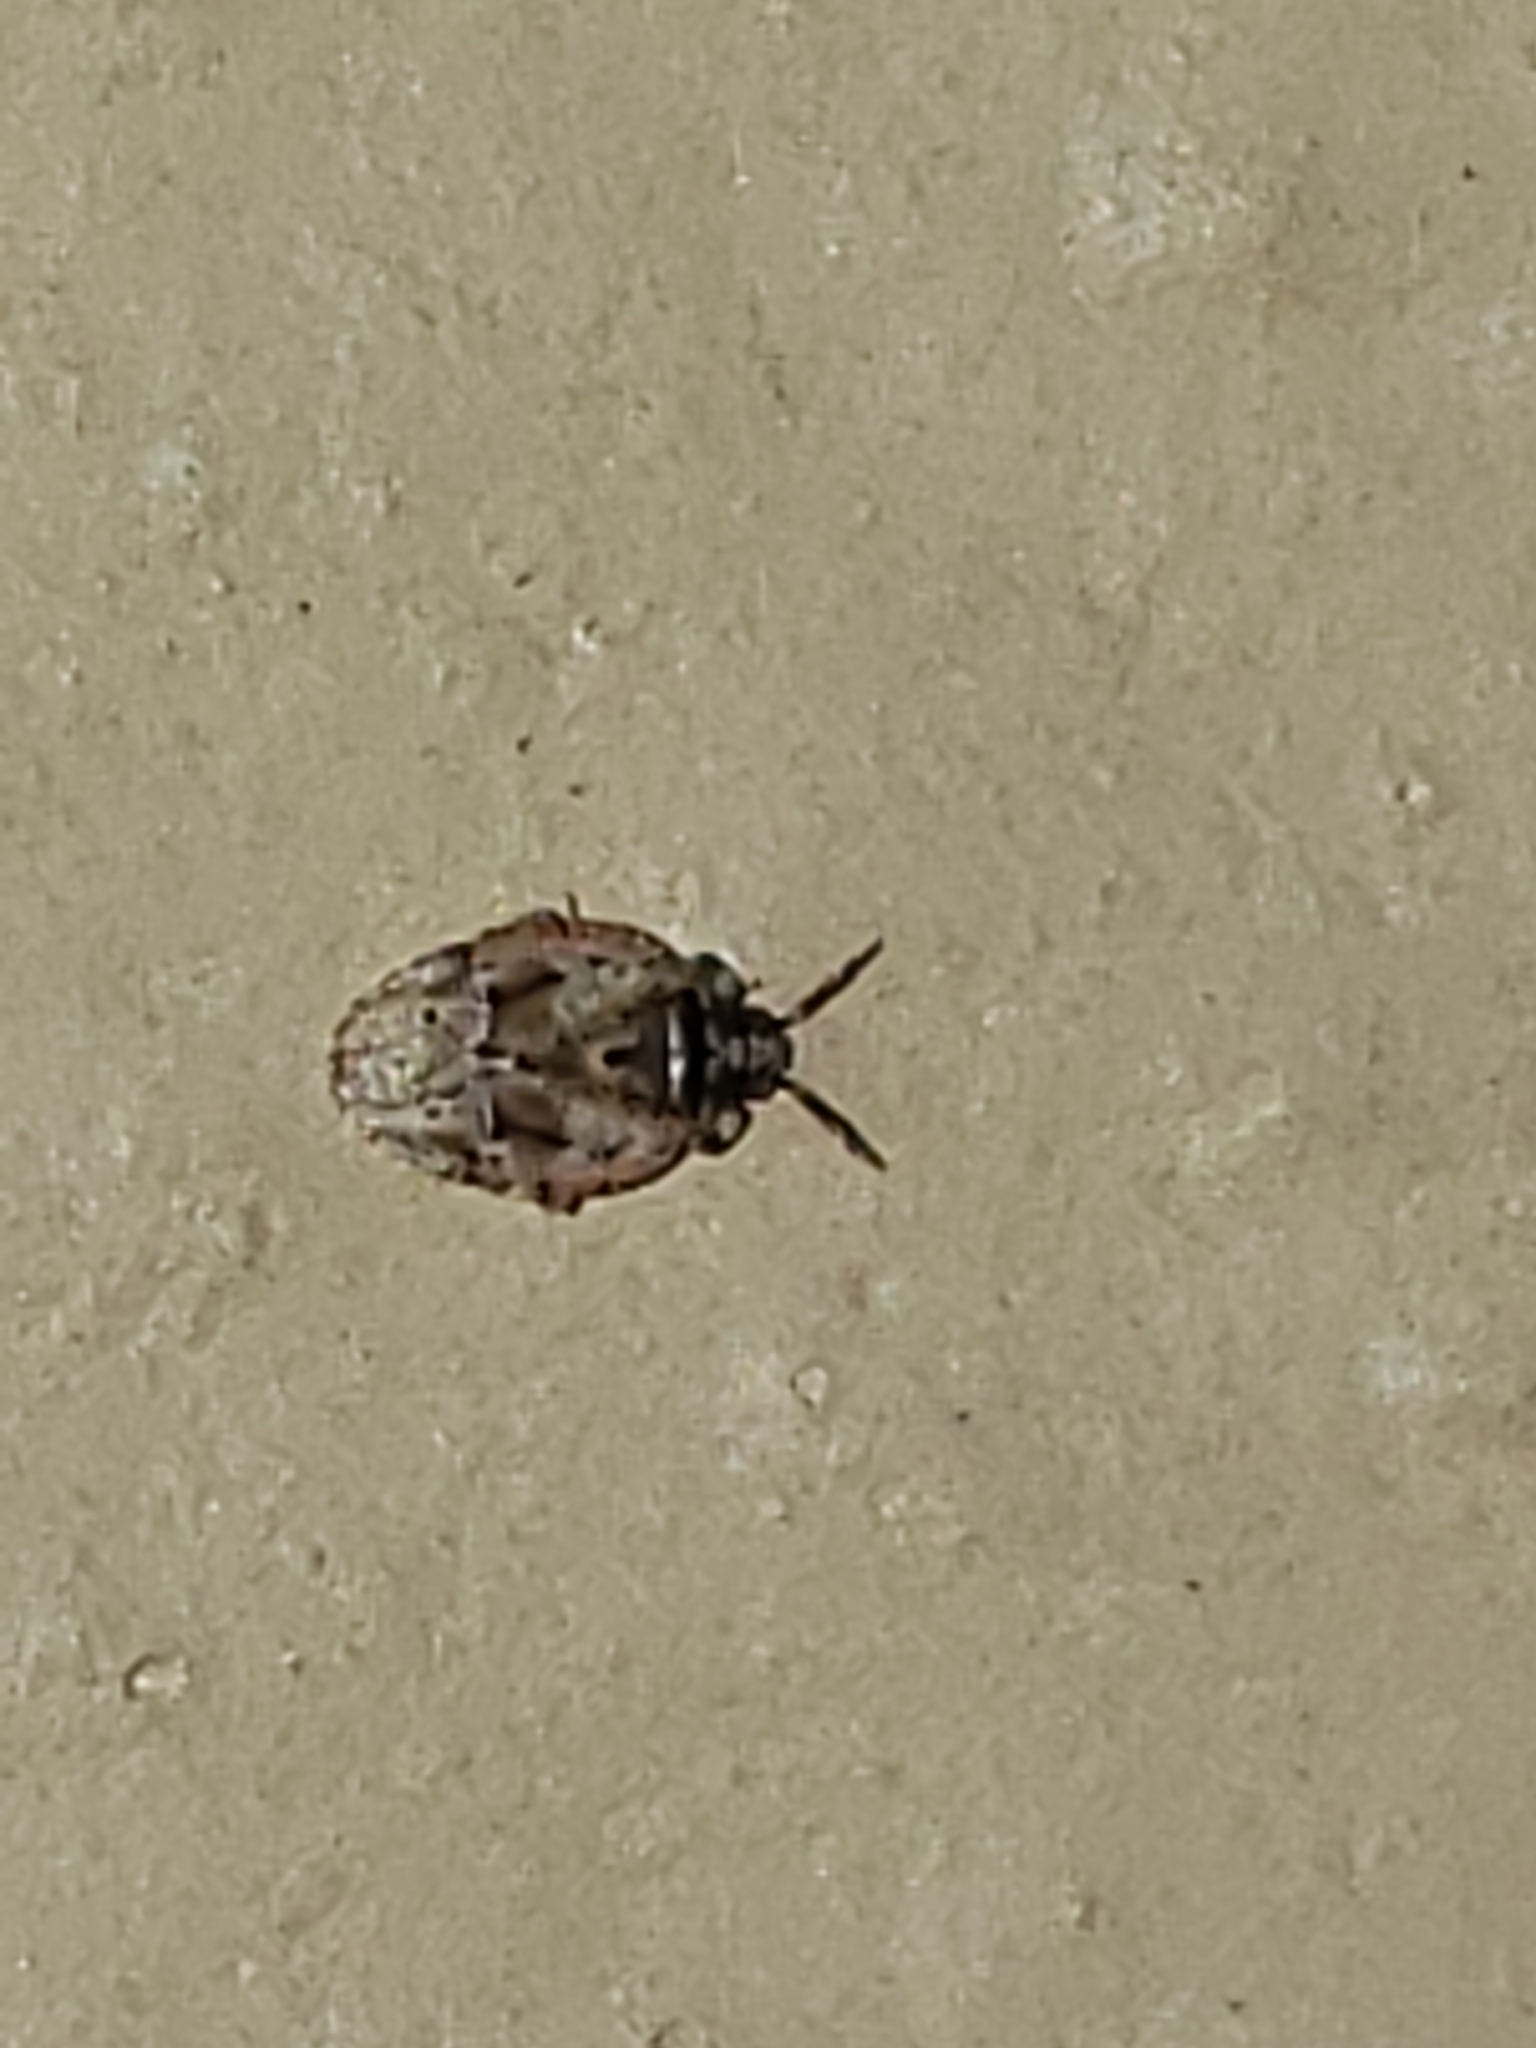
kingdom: Animalia
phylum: Arthropoda
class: Insecta
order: Hemiptera
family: Miridae
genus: Diphleps
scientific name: Diphleps unica
